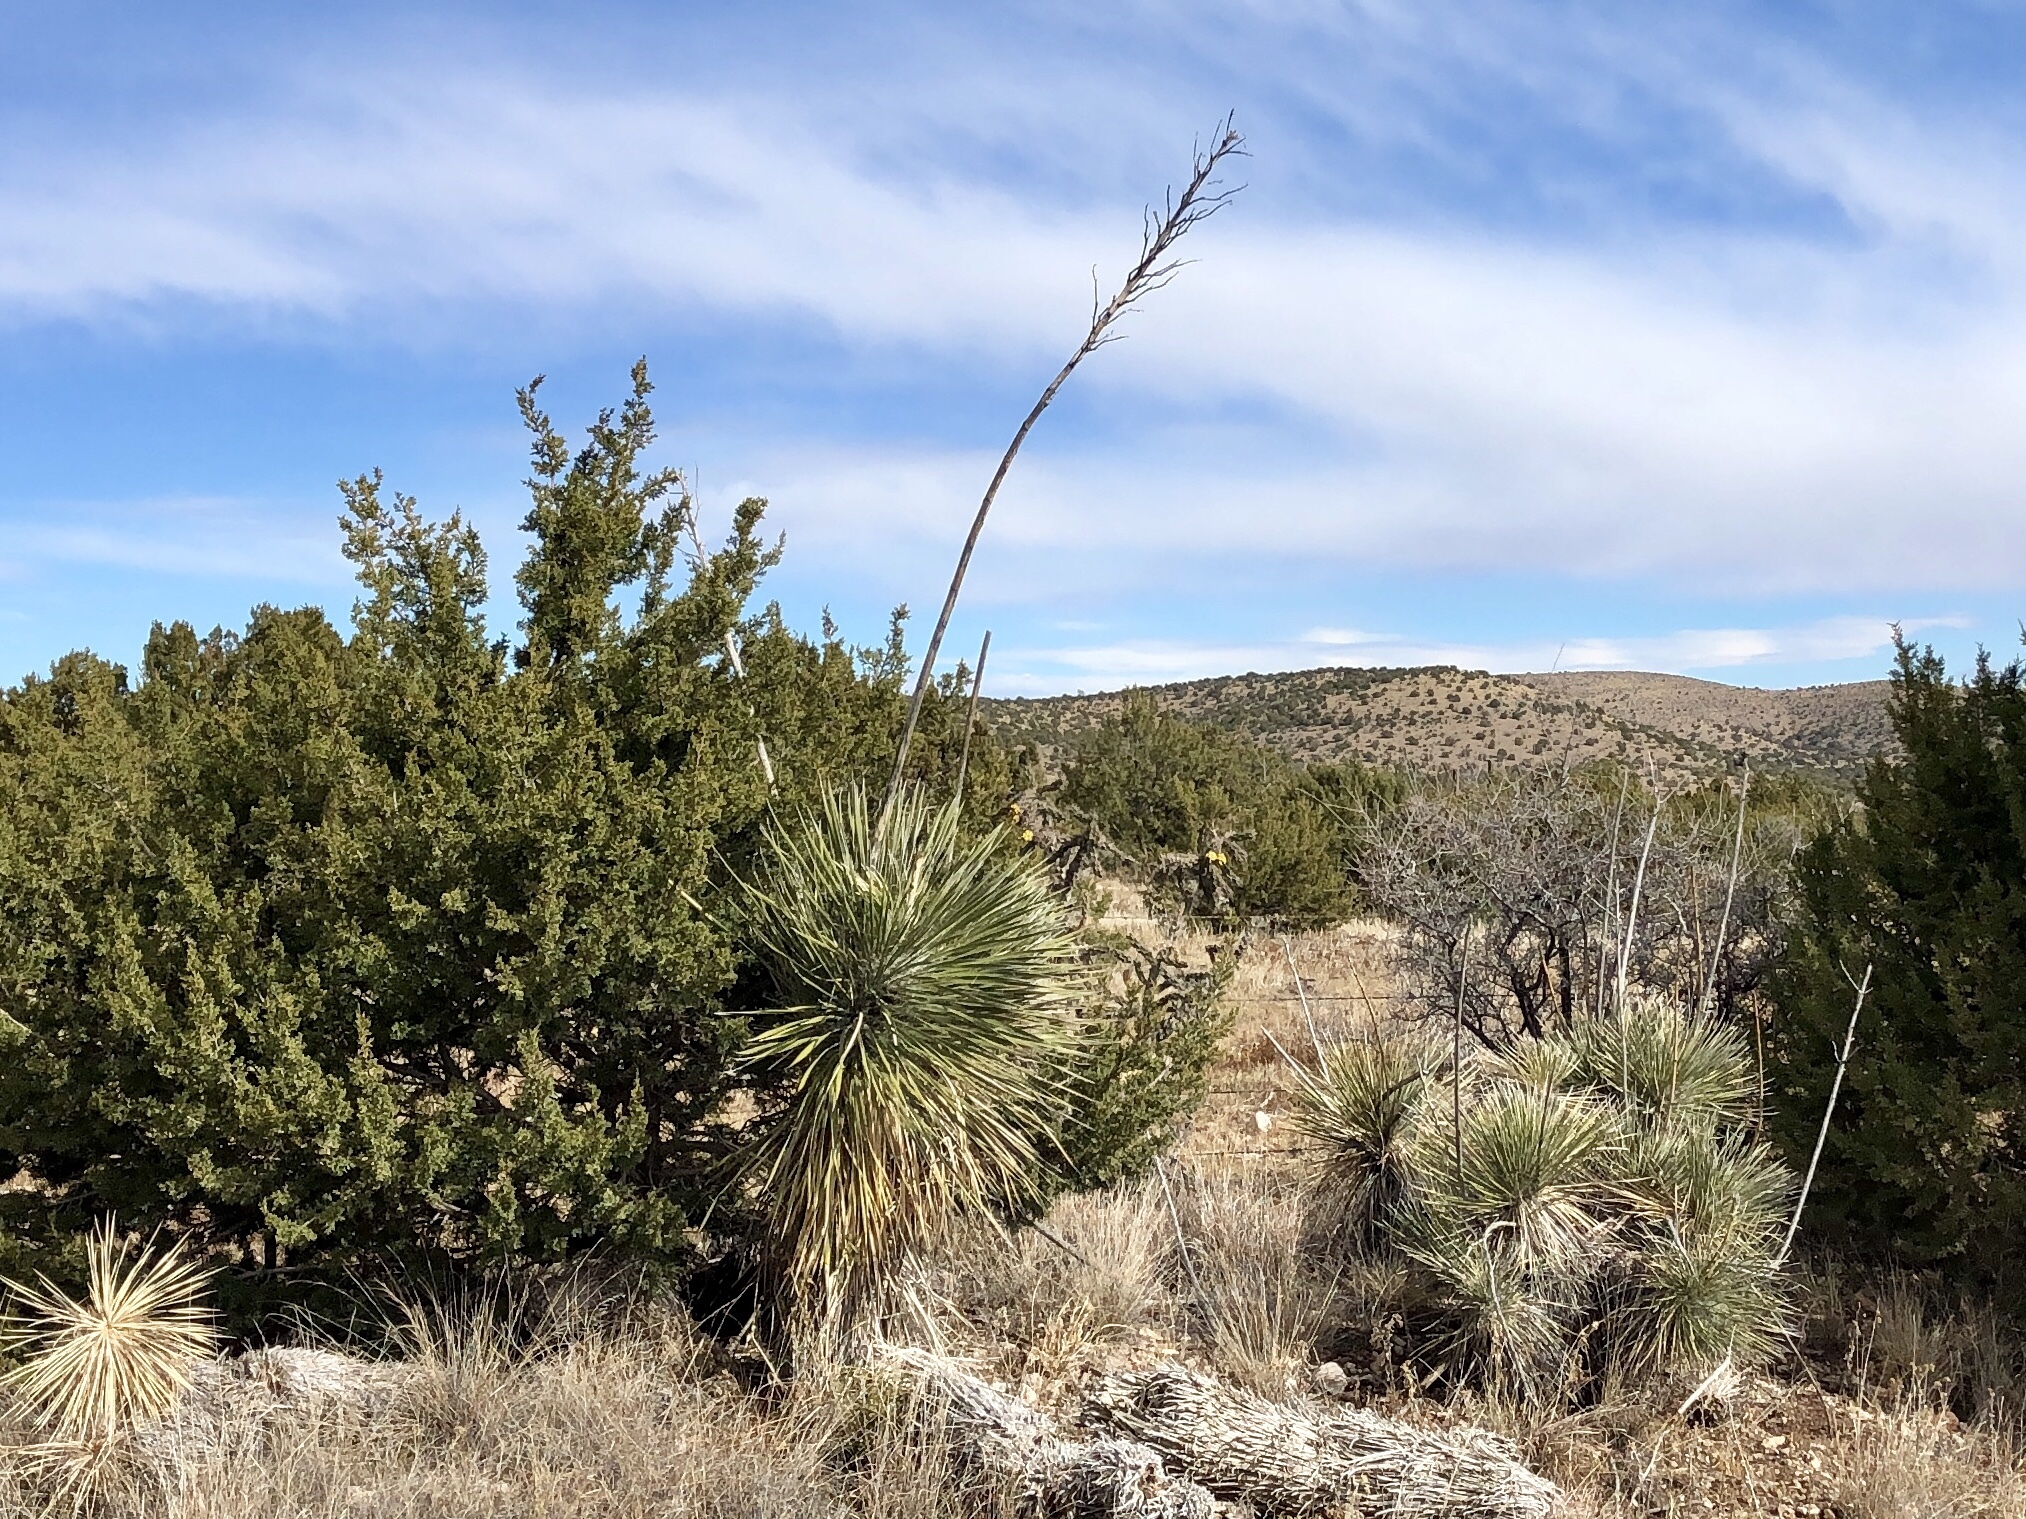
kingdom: Plantae
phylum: Tracheophyta
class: Liliopsida
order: Asparagales
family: Asparagaceae
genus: Yucca
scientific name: Yucca elata
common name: Palmella
